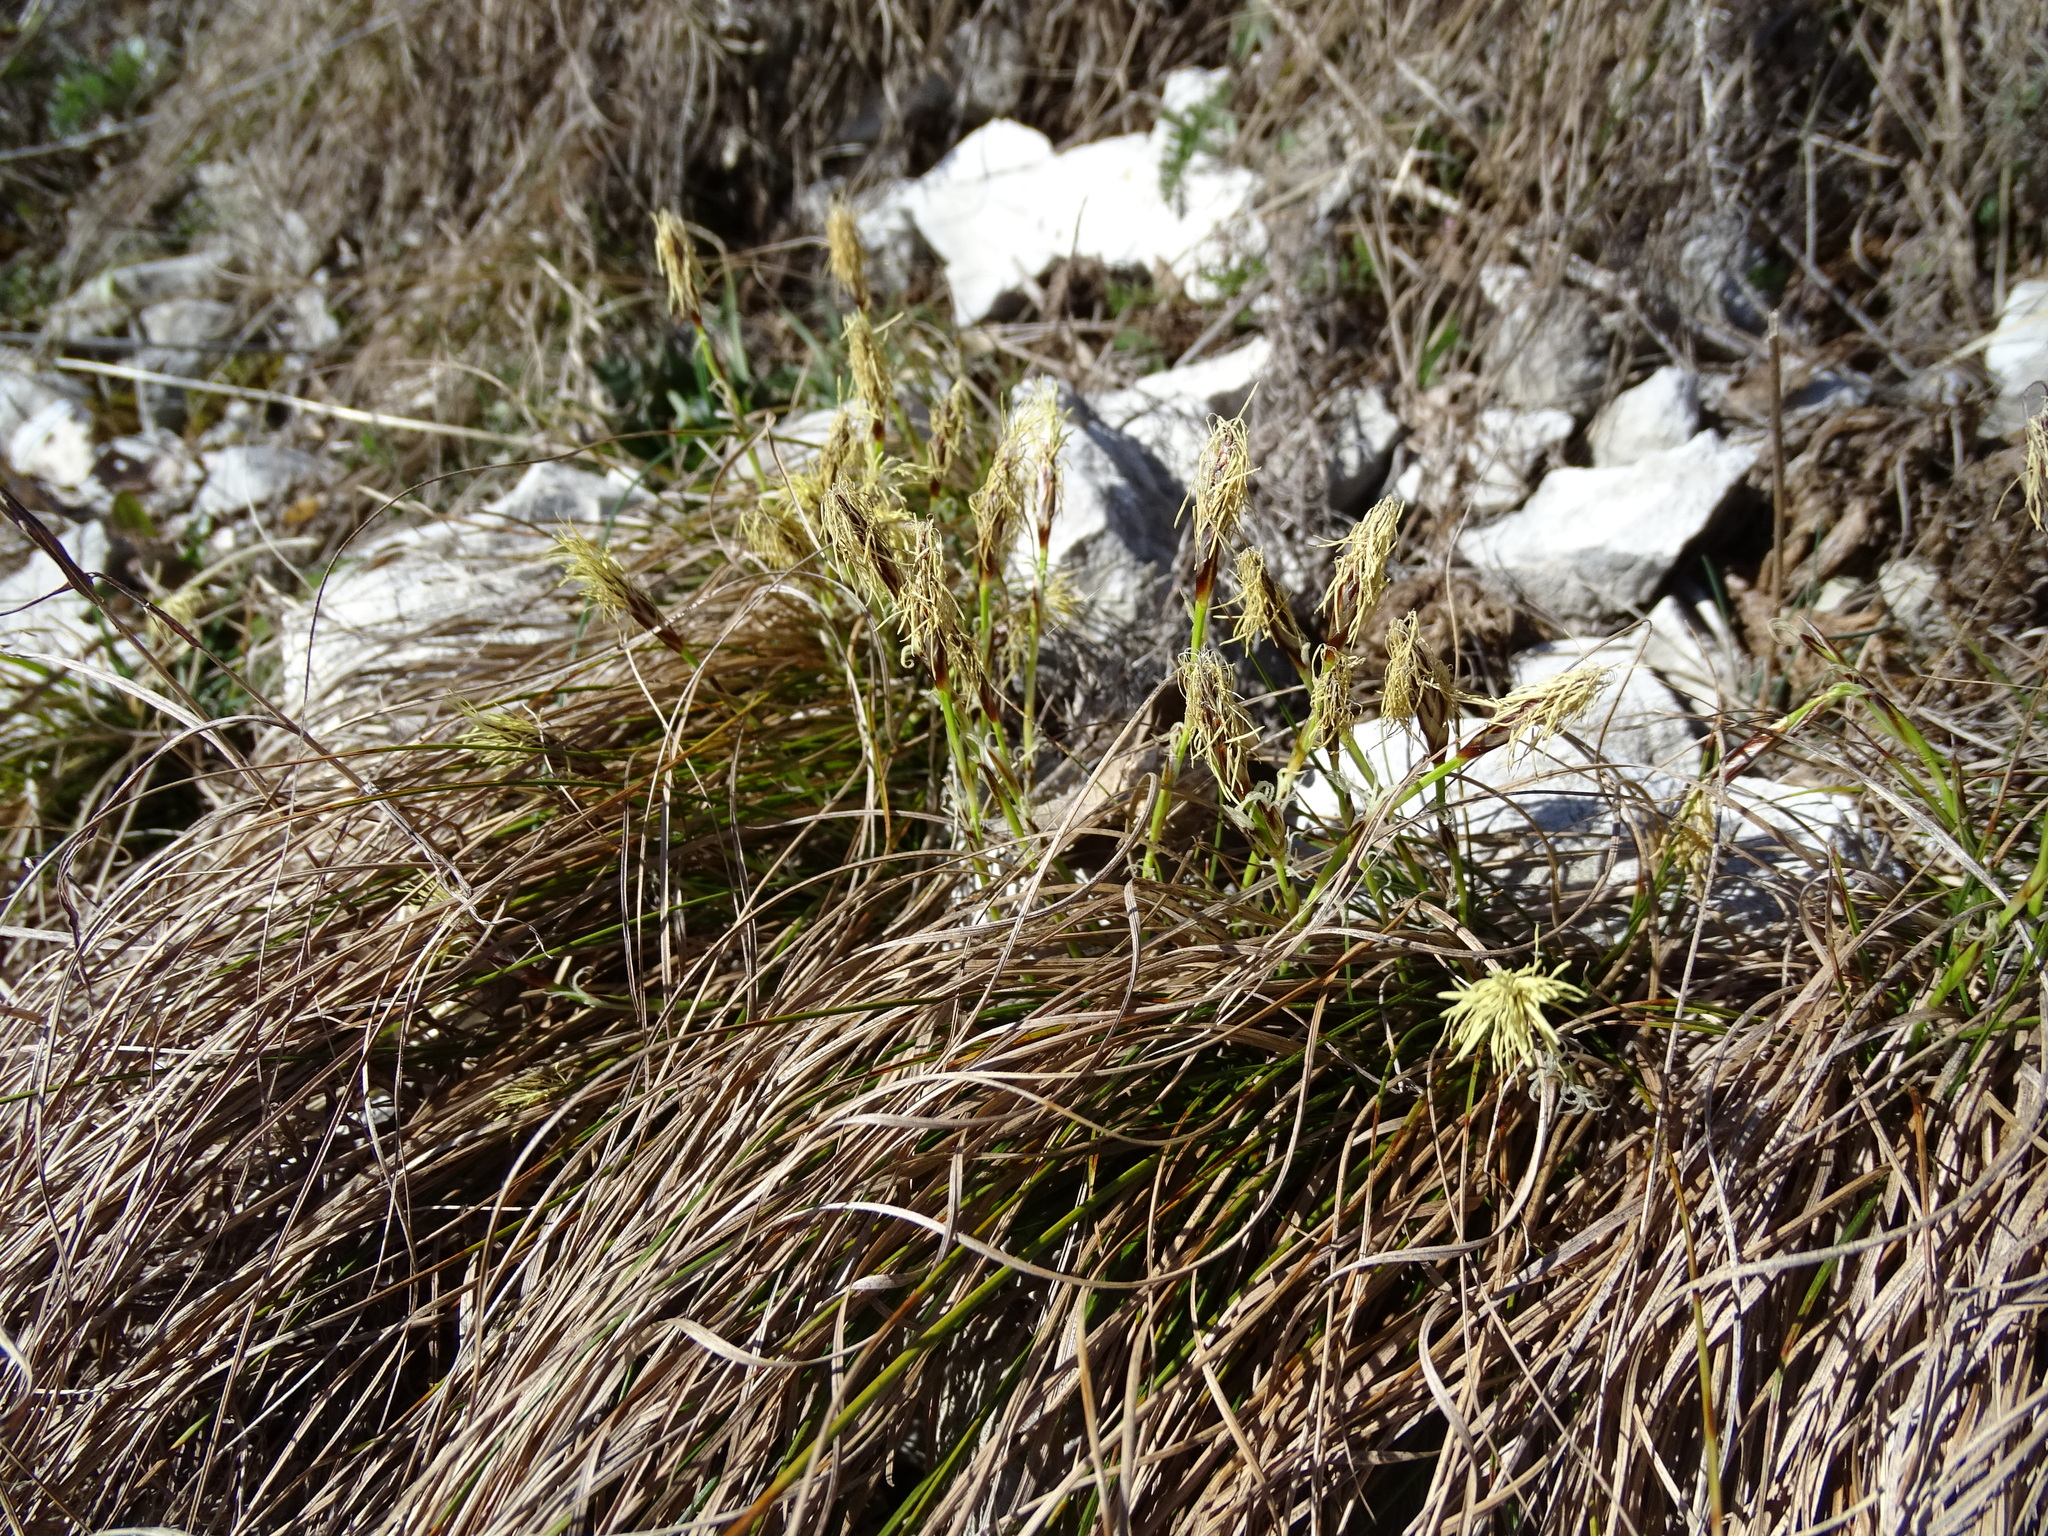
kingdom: Plantae
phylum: Tracheophyta
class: Liliopsida
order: Poales
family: Cyperaceae
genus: Carex
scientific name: Carex humilis
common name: Dwarf sedge
